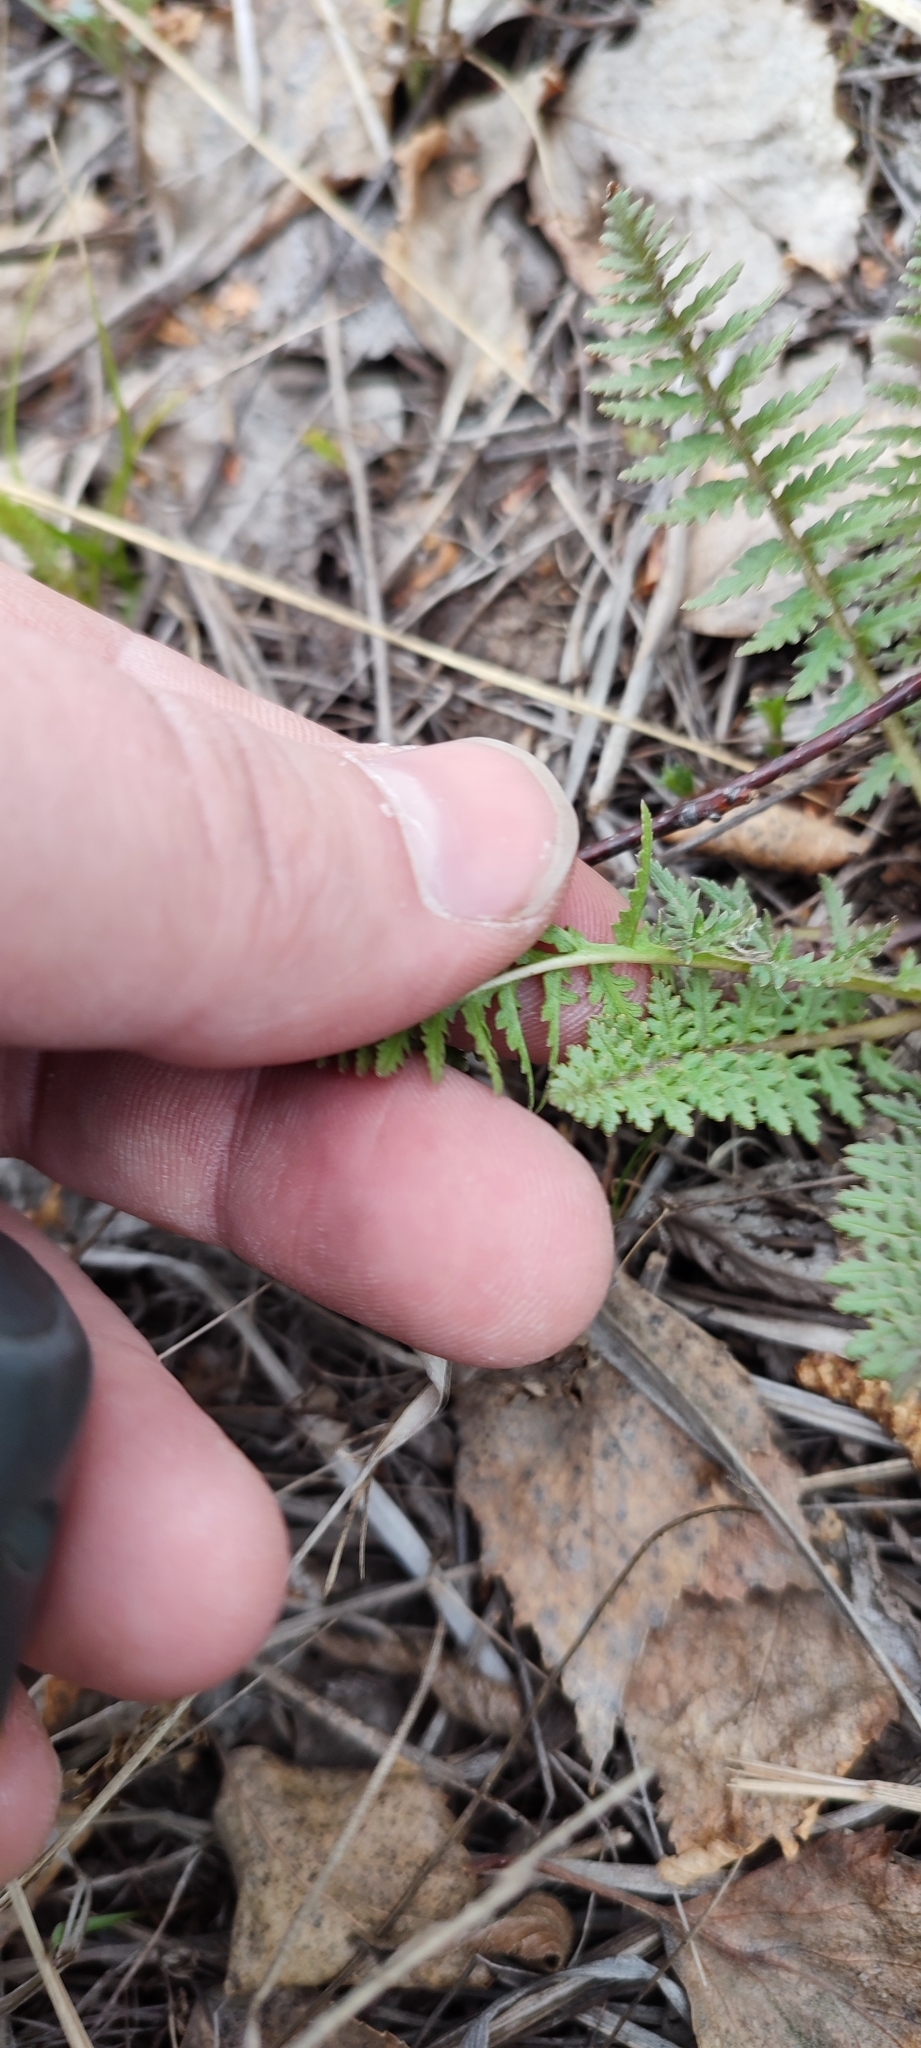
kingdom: Plantae
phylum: Tracheophyta
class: Magnoliopsida
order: Lamiales
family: Orobanchaceae
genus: Pedicularis
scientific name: Pedicularis dasystachys
